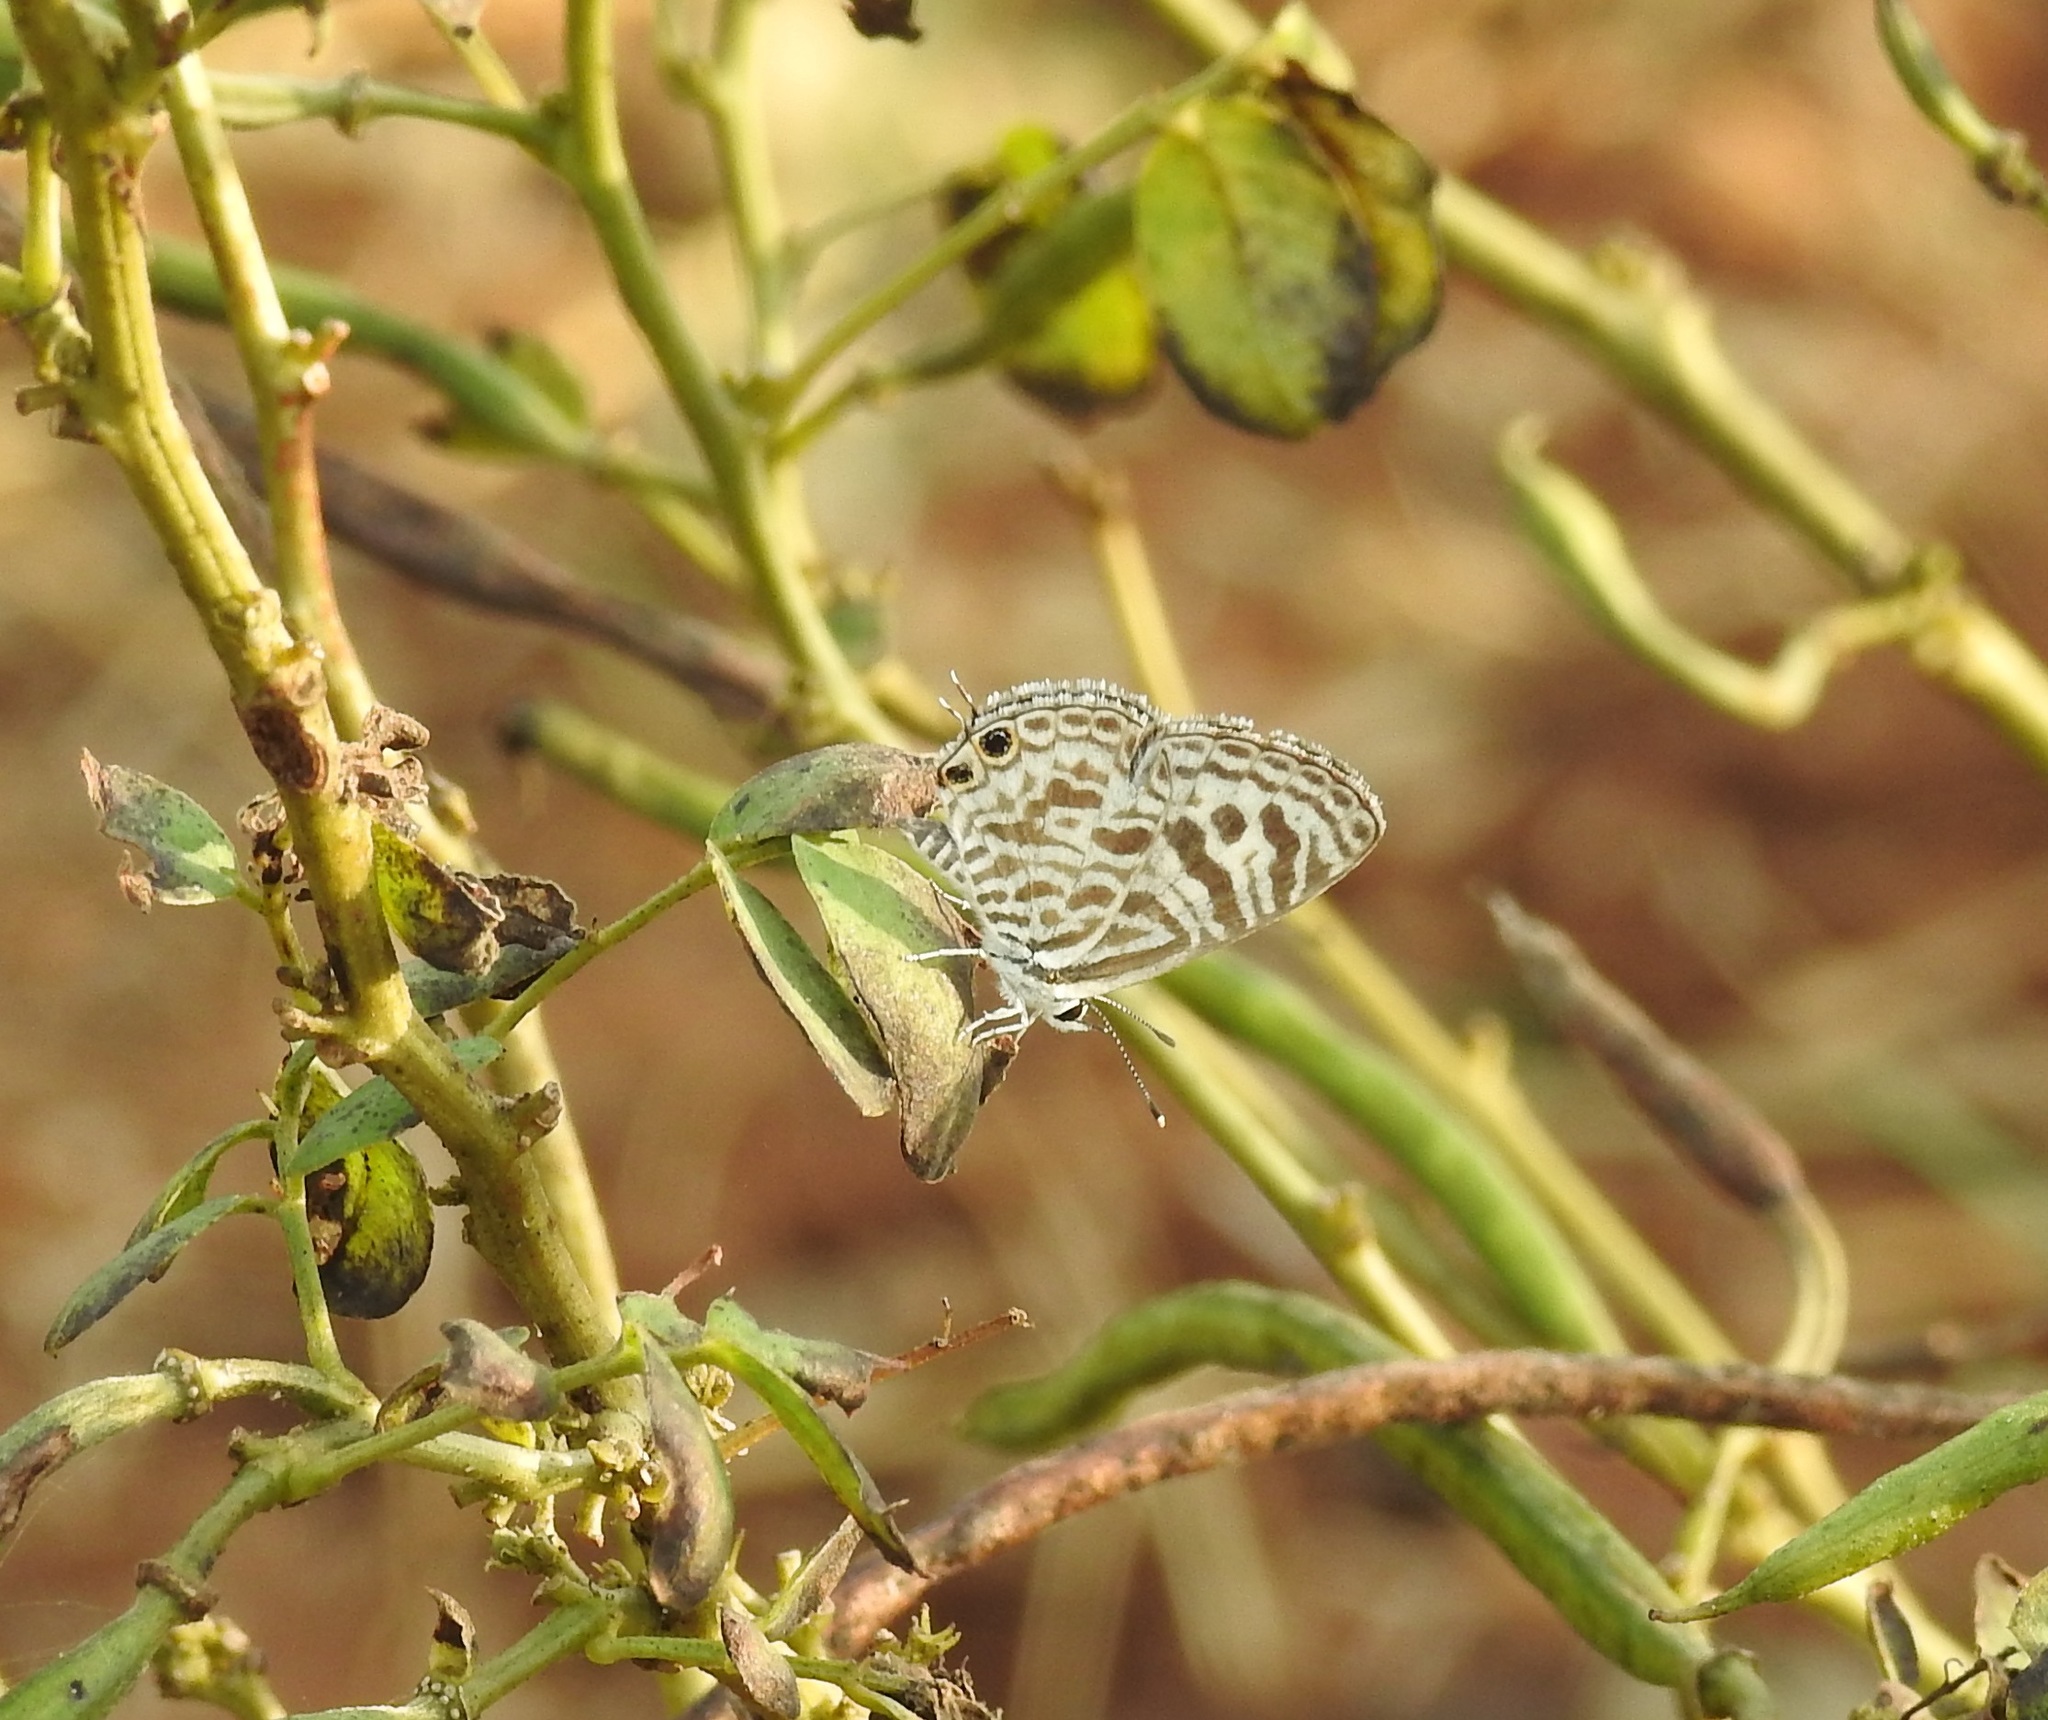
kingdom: Animalia
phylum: Arthropoda
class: Insecta
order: Lepidoptera
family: Lycaenidae
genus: Leptotes
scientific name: Leptotes plinius
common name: Zebra blue
